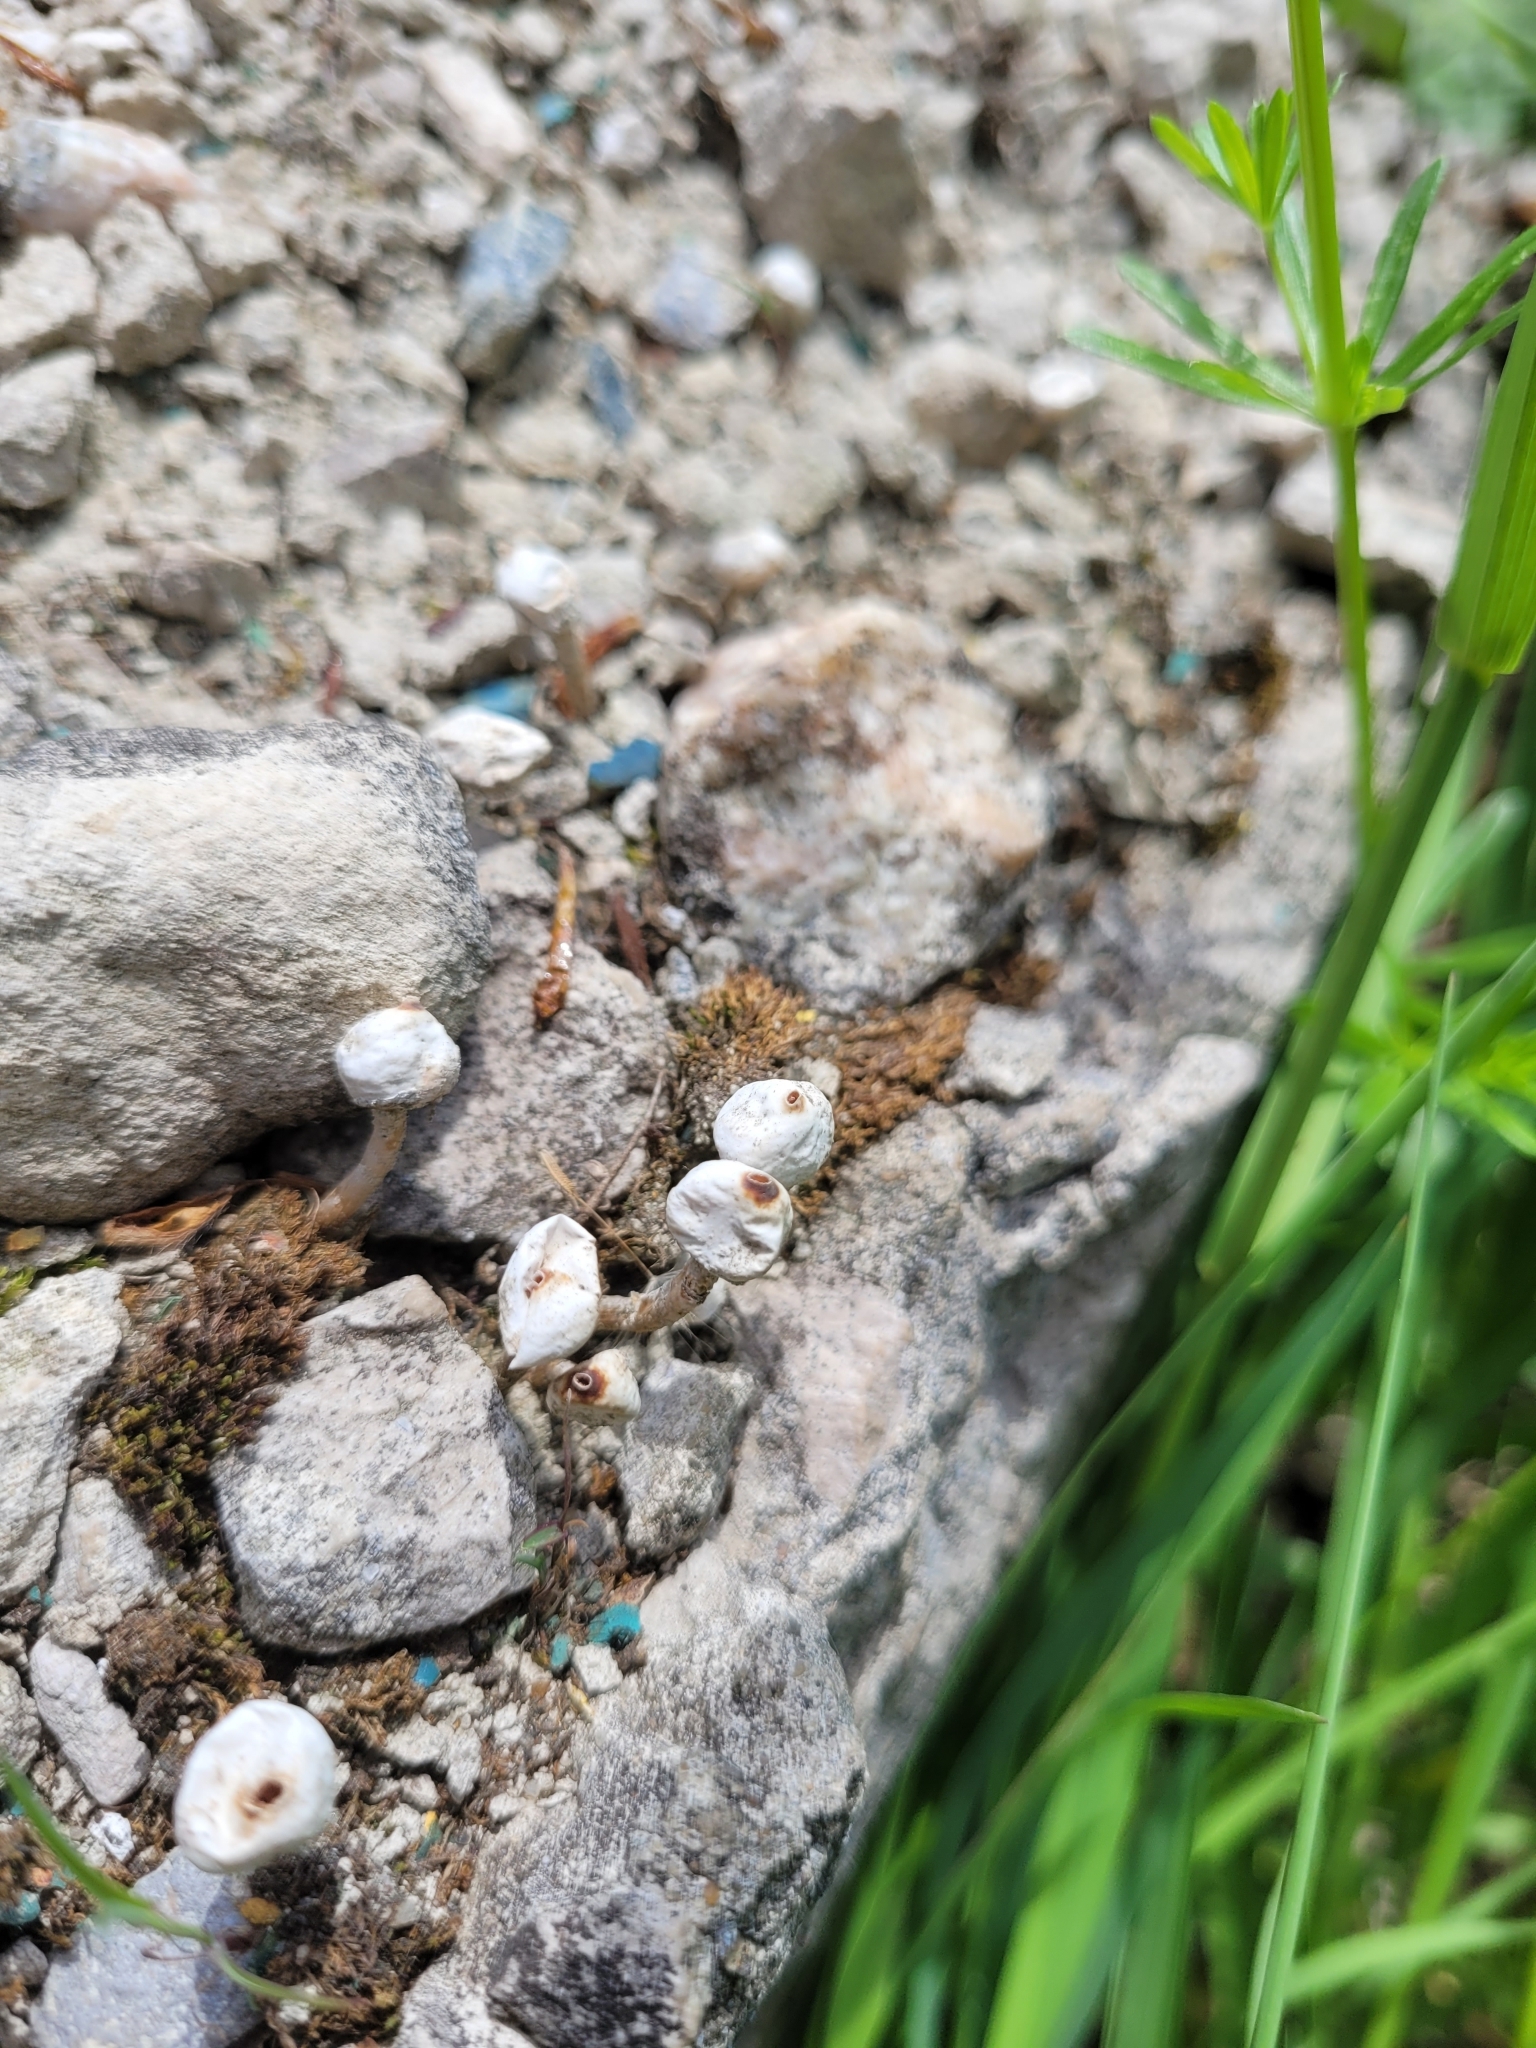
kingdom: Fungi
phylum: Basidiomycota
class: Agaricomycetes
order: Agaricales
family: Agaricaceae
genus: Tulostoma
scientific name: Tulostoma brumale
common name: Winter stalk puffball
